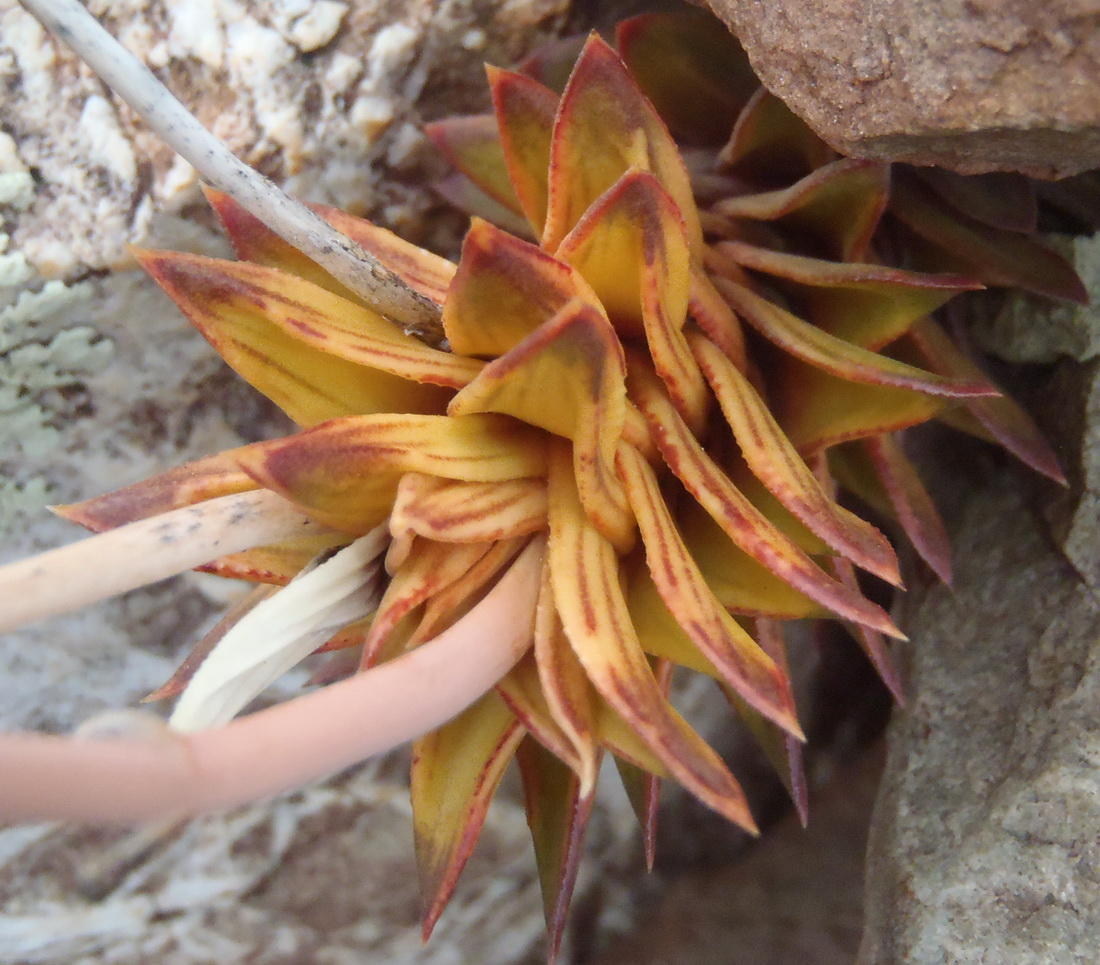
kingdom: Plantae
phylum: Tracheophyta
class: Liliopsida
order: Asparagales
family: Asphodelaceae
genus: Astroloba
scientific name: Astroloba pentagona
